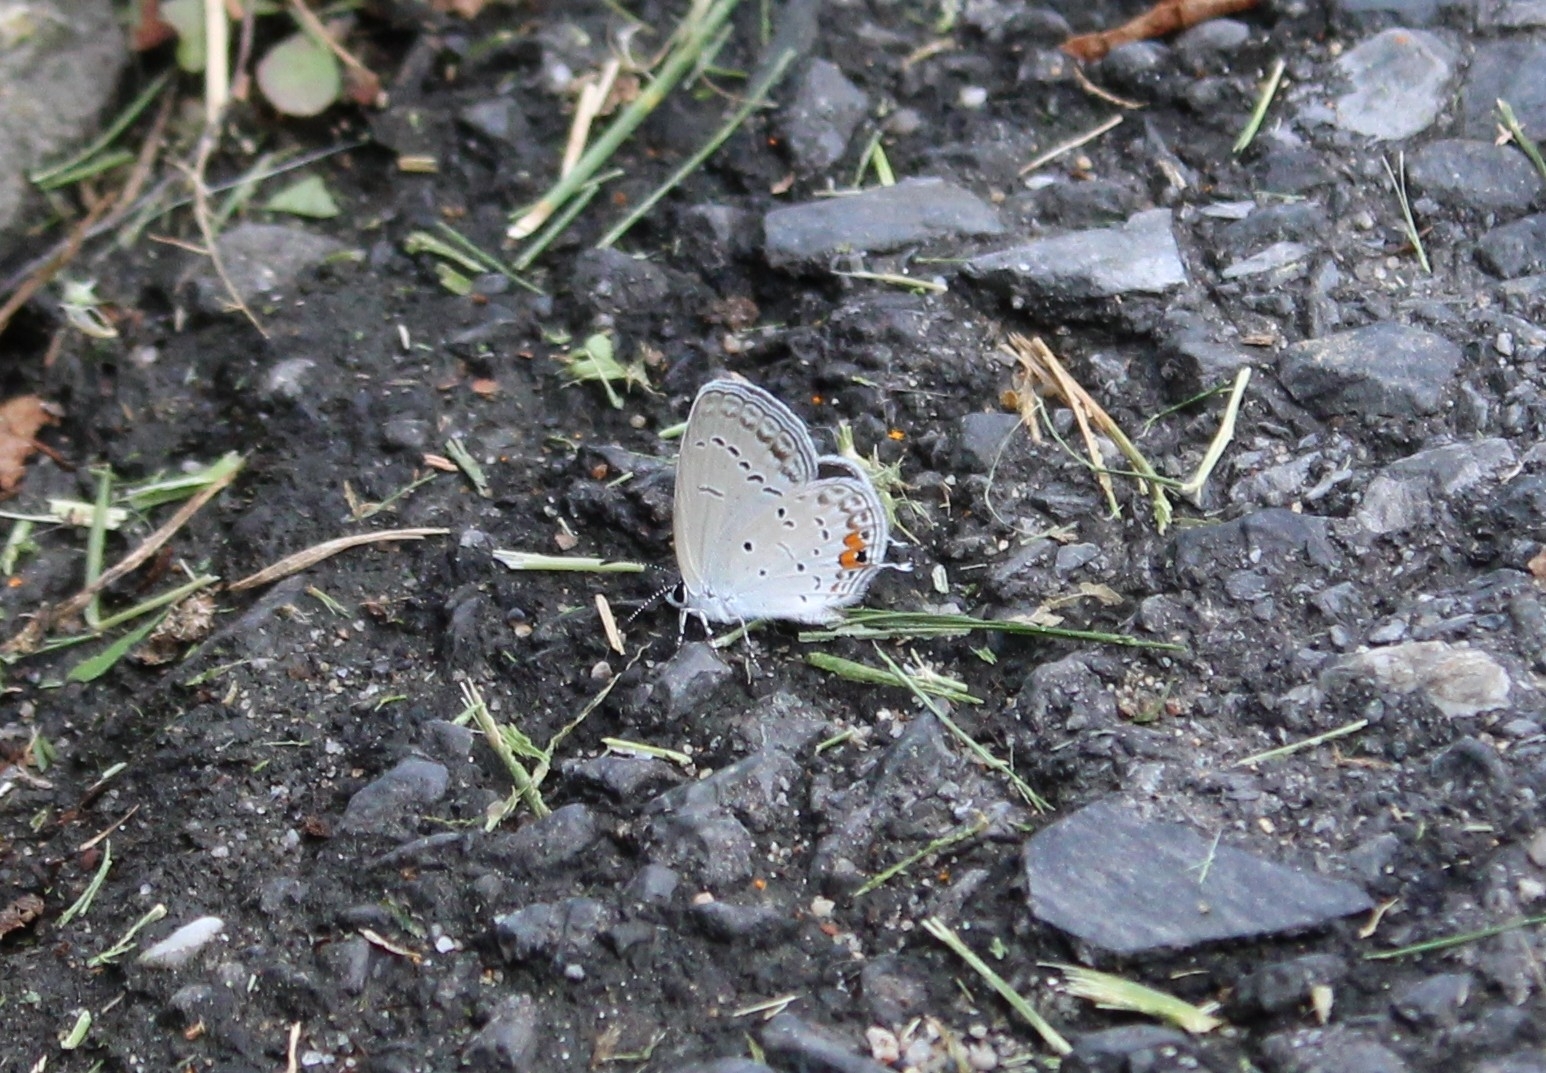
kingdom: Animalia
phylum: Arthropoda
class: Insecta
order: Lepidoptera
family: Lycaenidae
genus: Elkalyce
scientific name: Elkalyce comyntas
